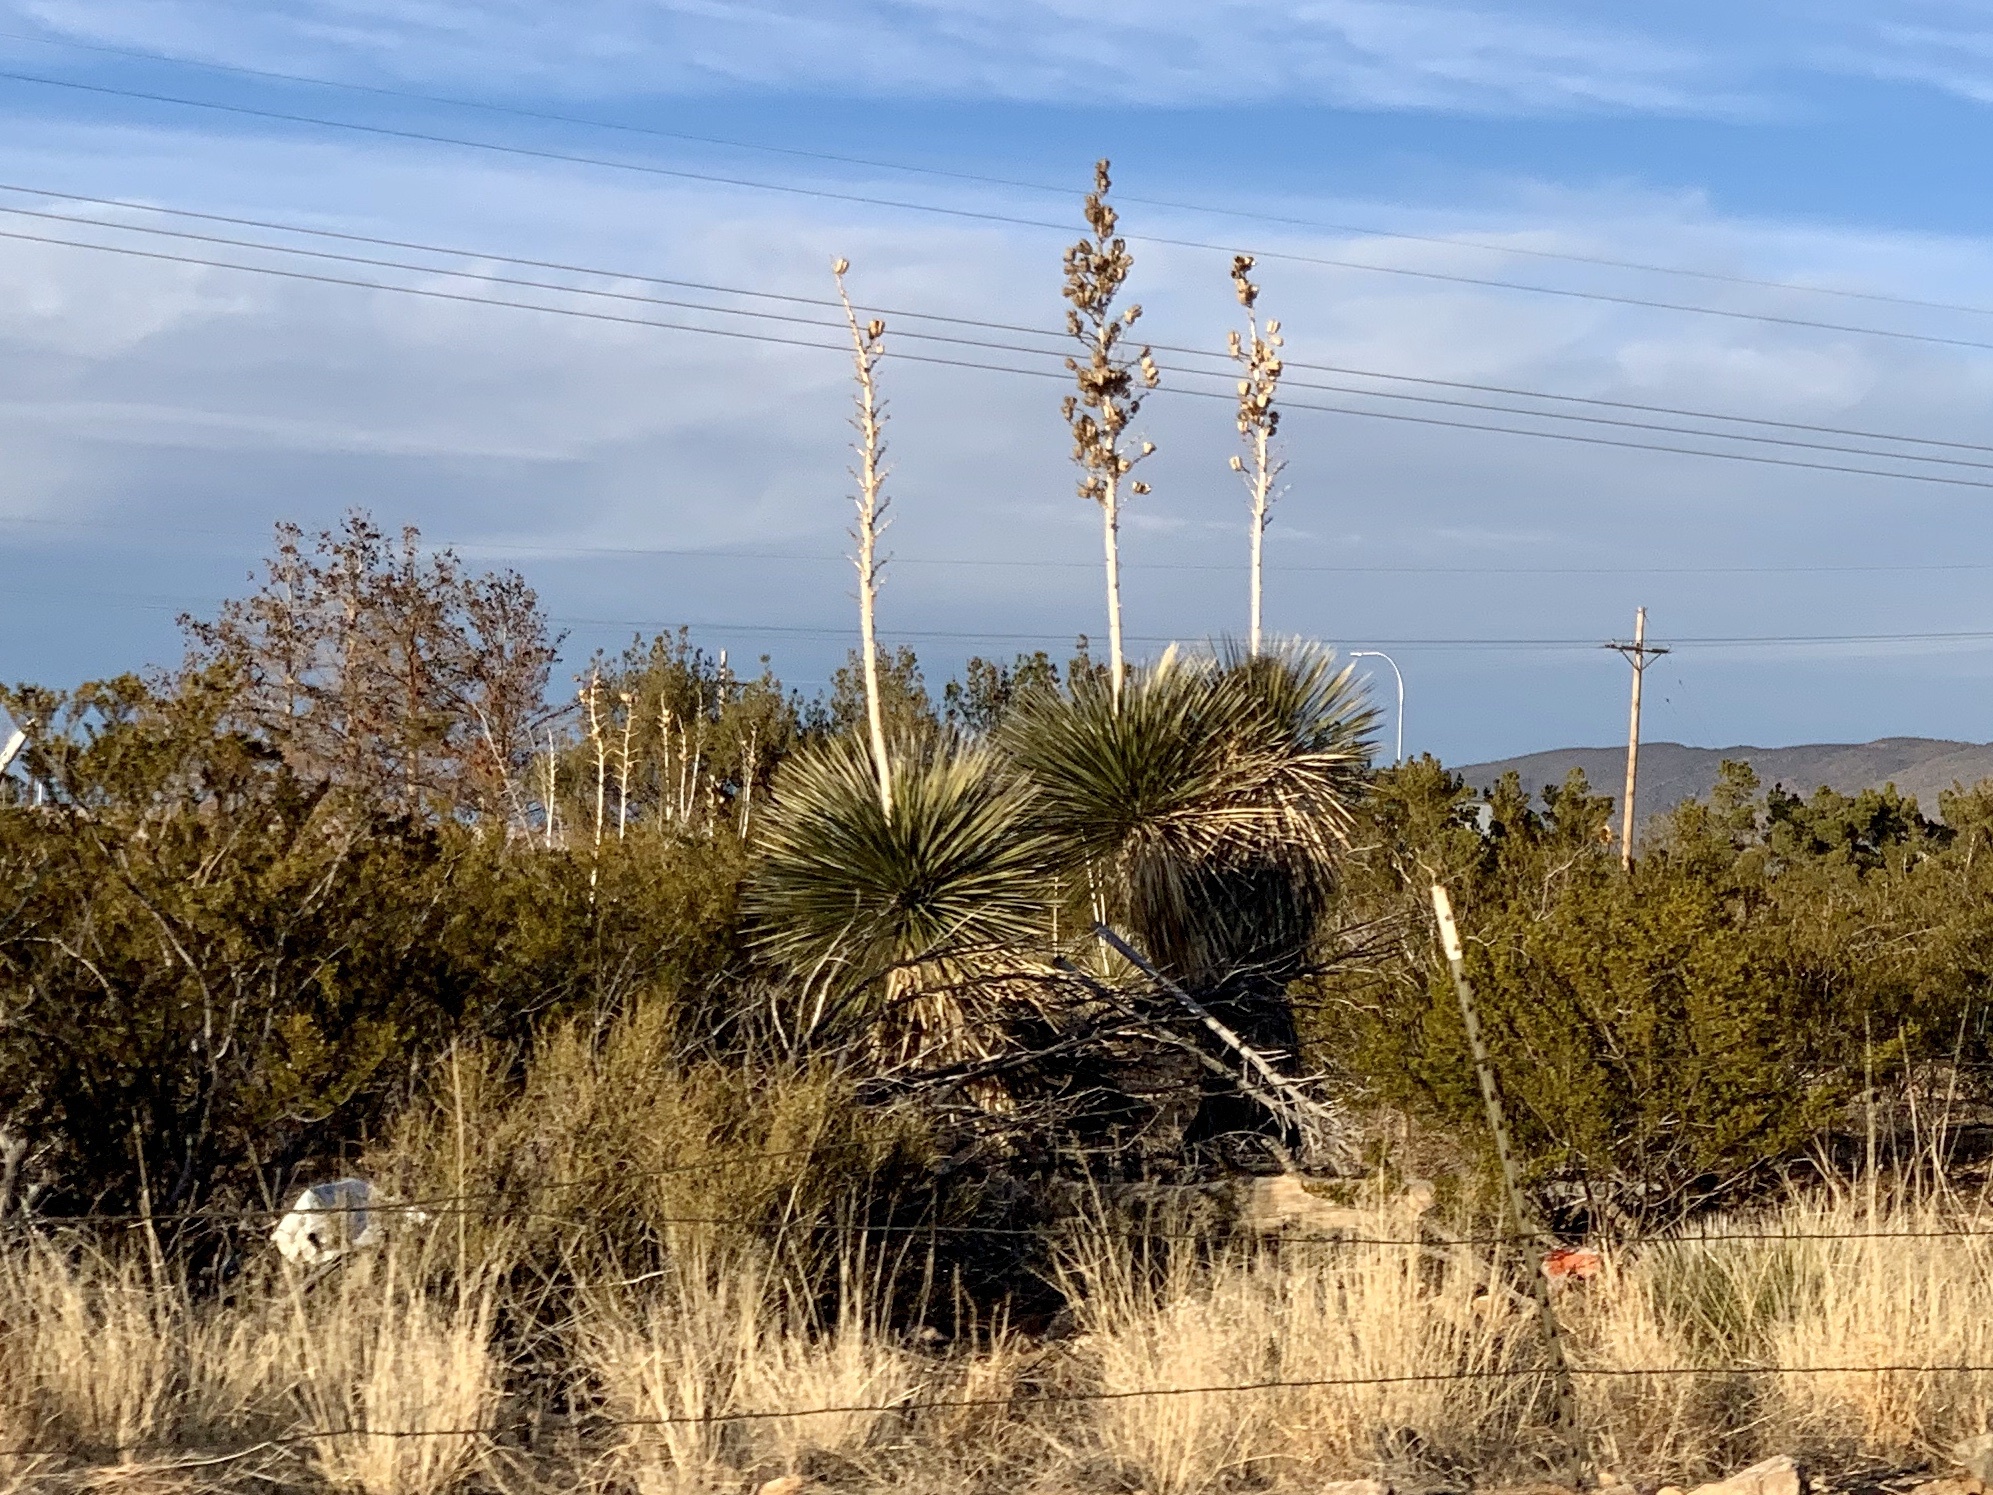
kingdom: Plantae
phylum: Tracheophyta
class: Liliopsida
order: Asparagales
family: Asparagaceae
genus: Yucca
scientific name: Yucca elata
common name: Palmella
